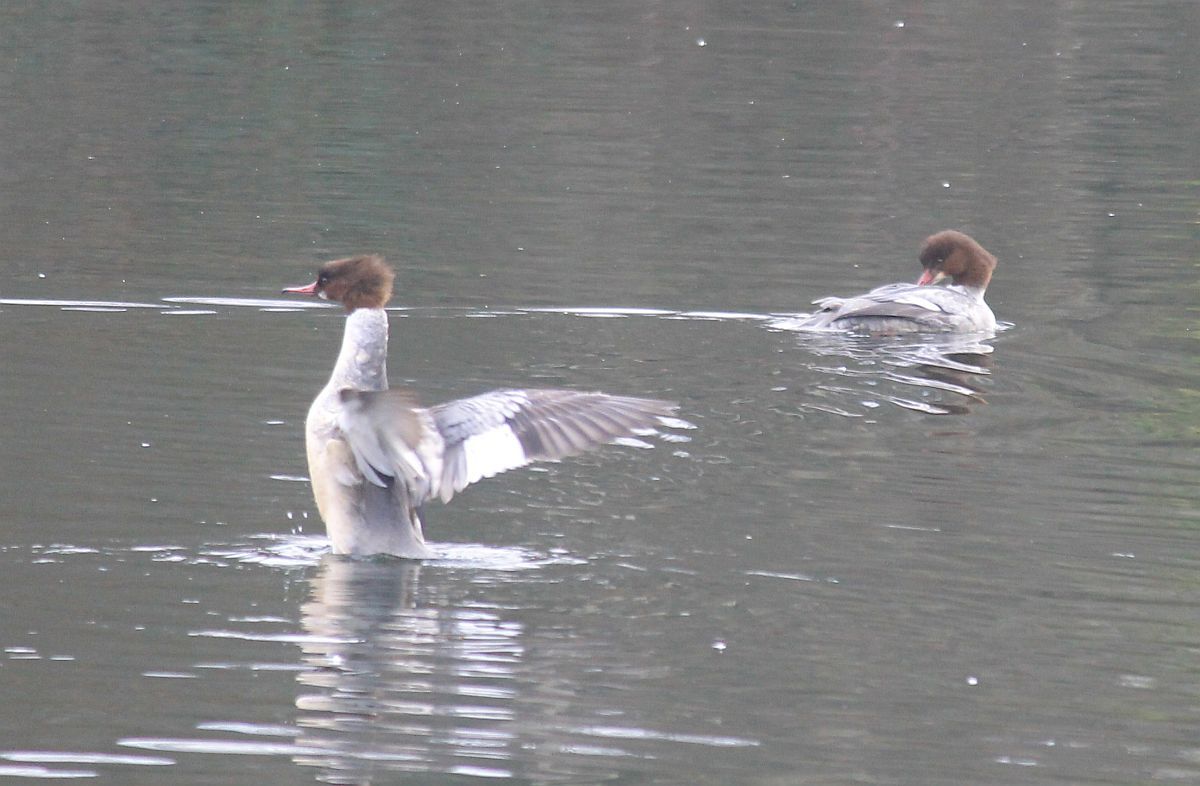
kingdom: Animalia
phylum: Chordata
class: Aves
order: Anseriformes
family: Anatidae
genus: Mergus
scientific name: Mergus merganser
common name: Common merganser
